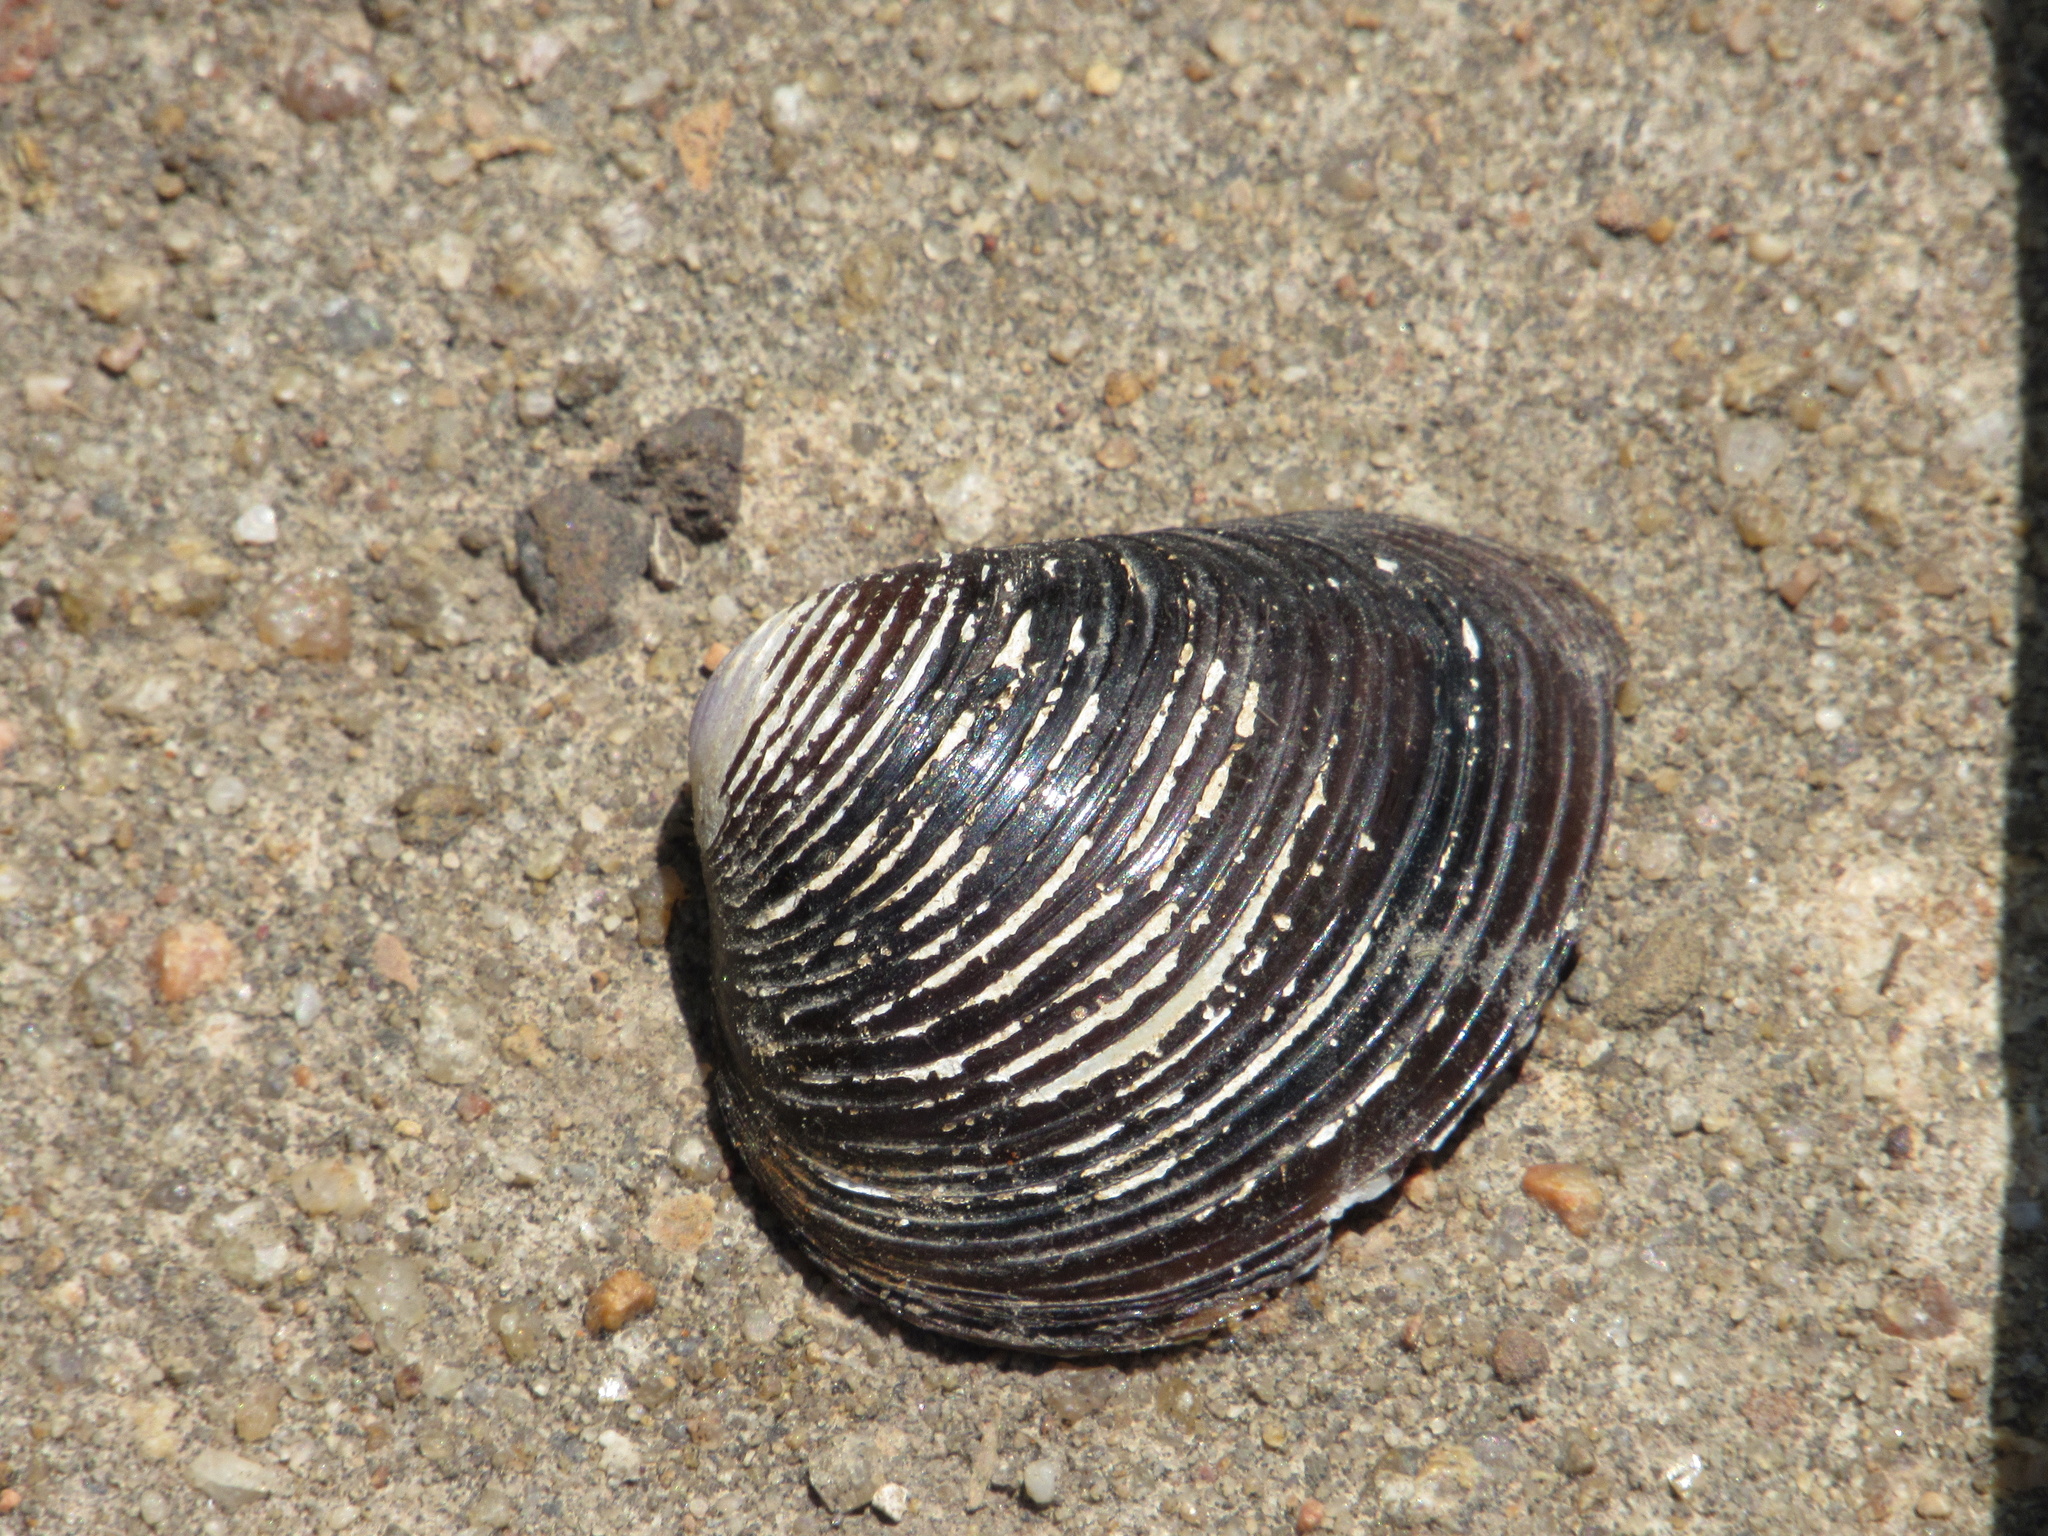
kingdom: Animalia
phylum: Mollusca
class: Bivalvia
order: Venerida
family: Cyrenidae
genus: Corbicula
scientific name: Corbicula fluminea
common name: Asian clam
